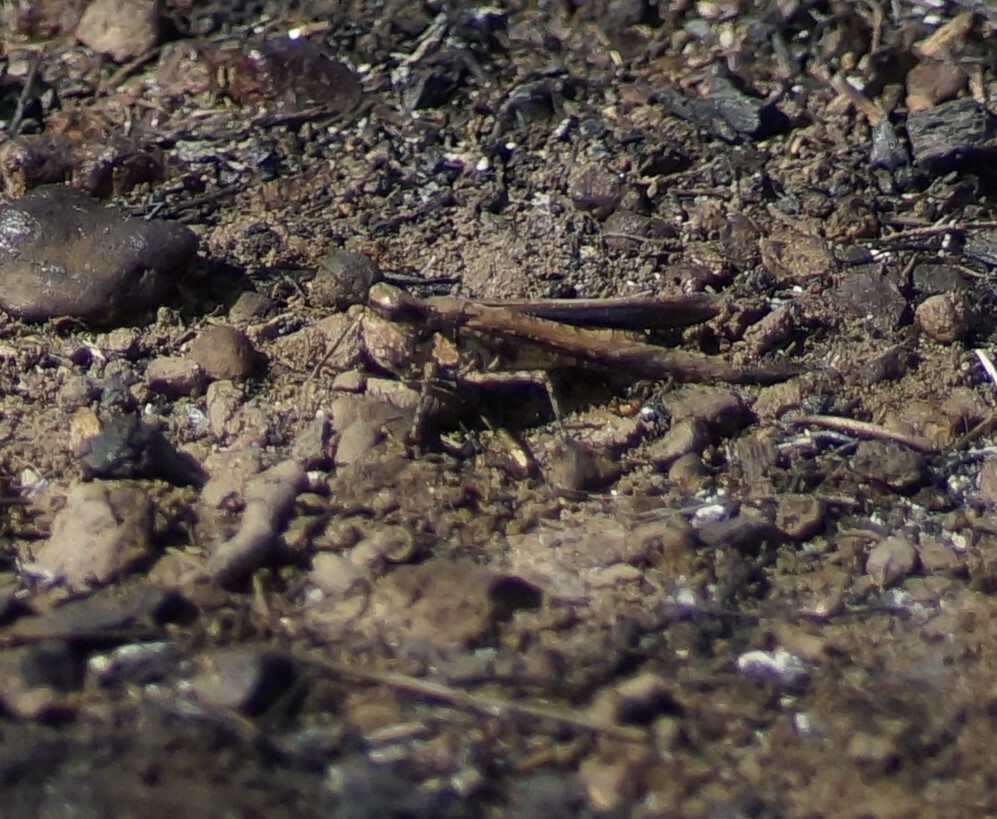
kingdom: Animalia
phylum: Arthropoda
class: Insecta
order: Orthoptera
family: Acrididae
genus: Pycnostictus
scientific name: Pycnostictus seriatus
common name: Common bandwing
